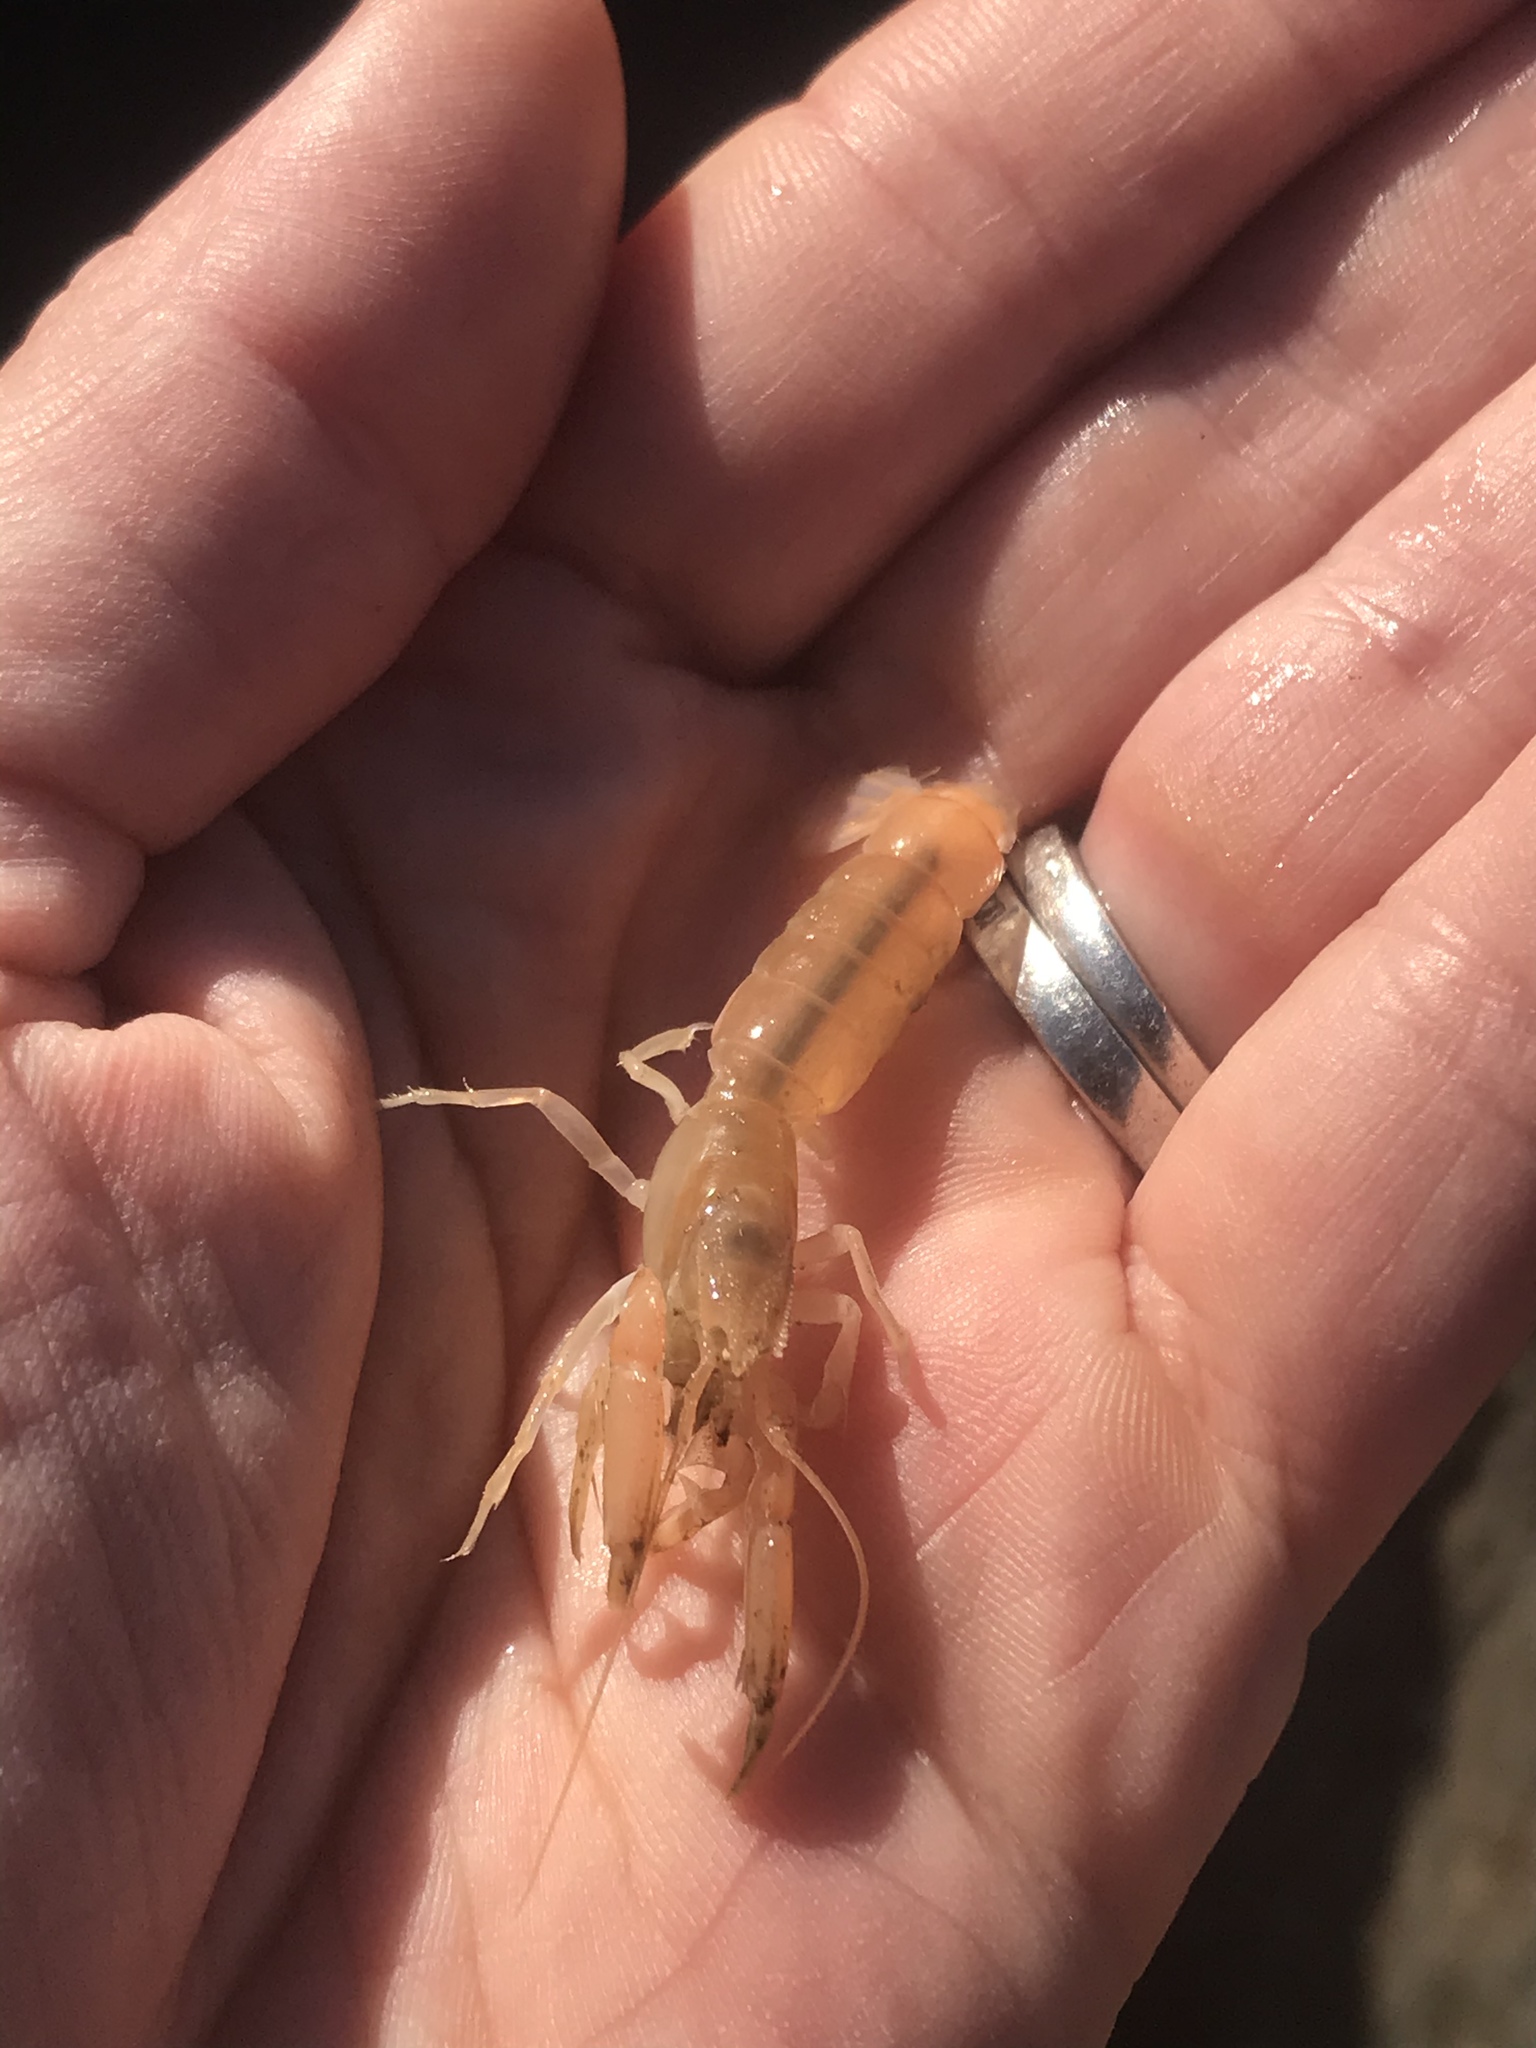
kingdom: Animalia
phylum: Arthropoda
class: Malacostraca
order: Decapoda
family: Upogebiidae
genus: Acutigebia
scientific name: Acutigebia danai
